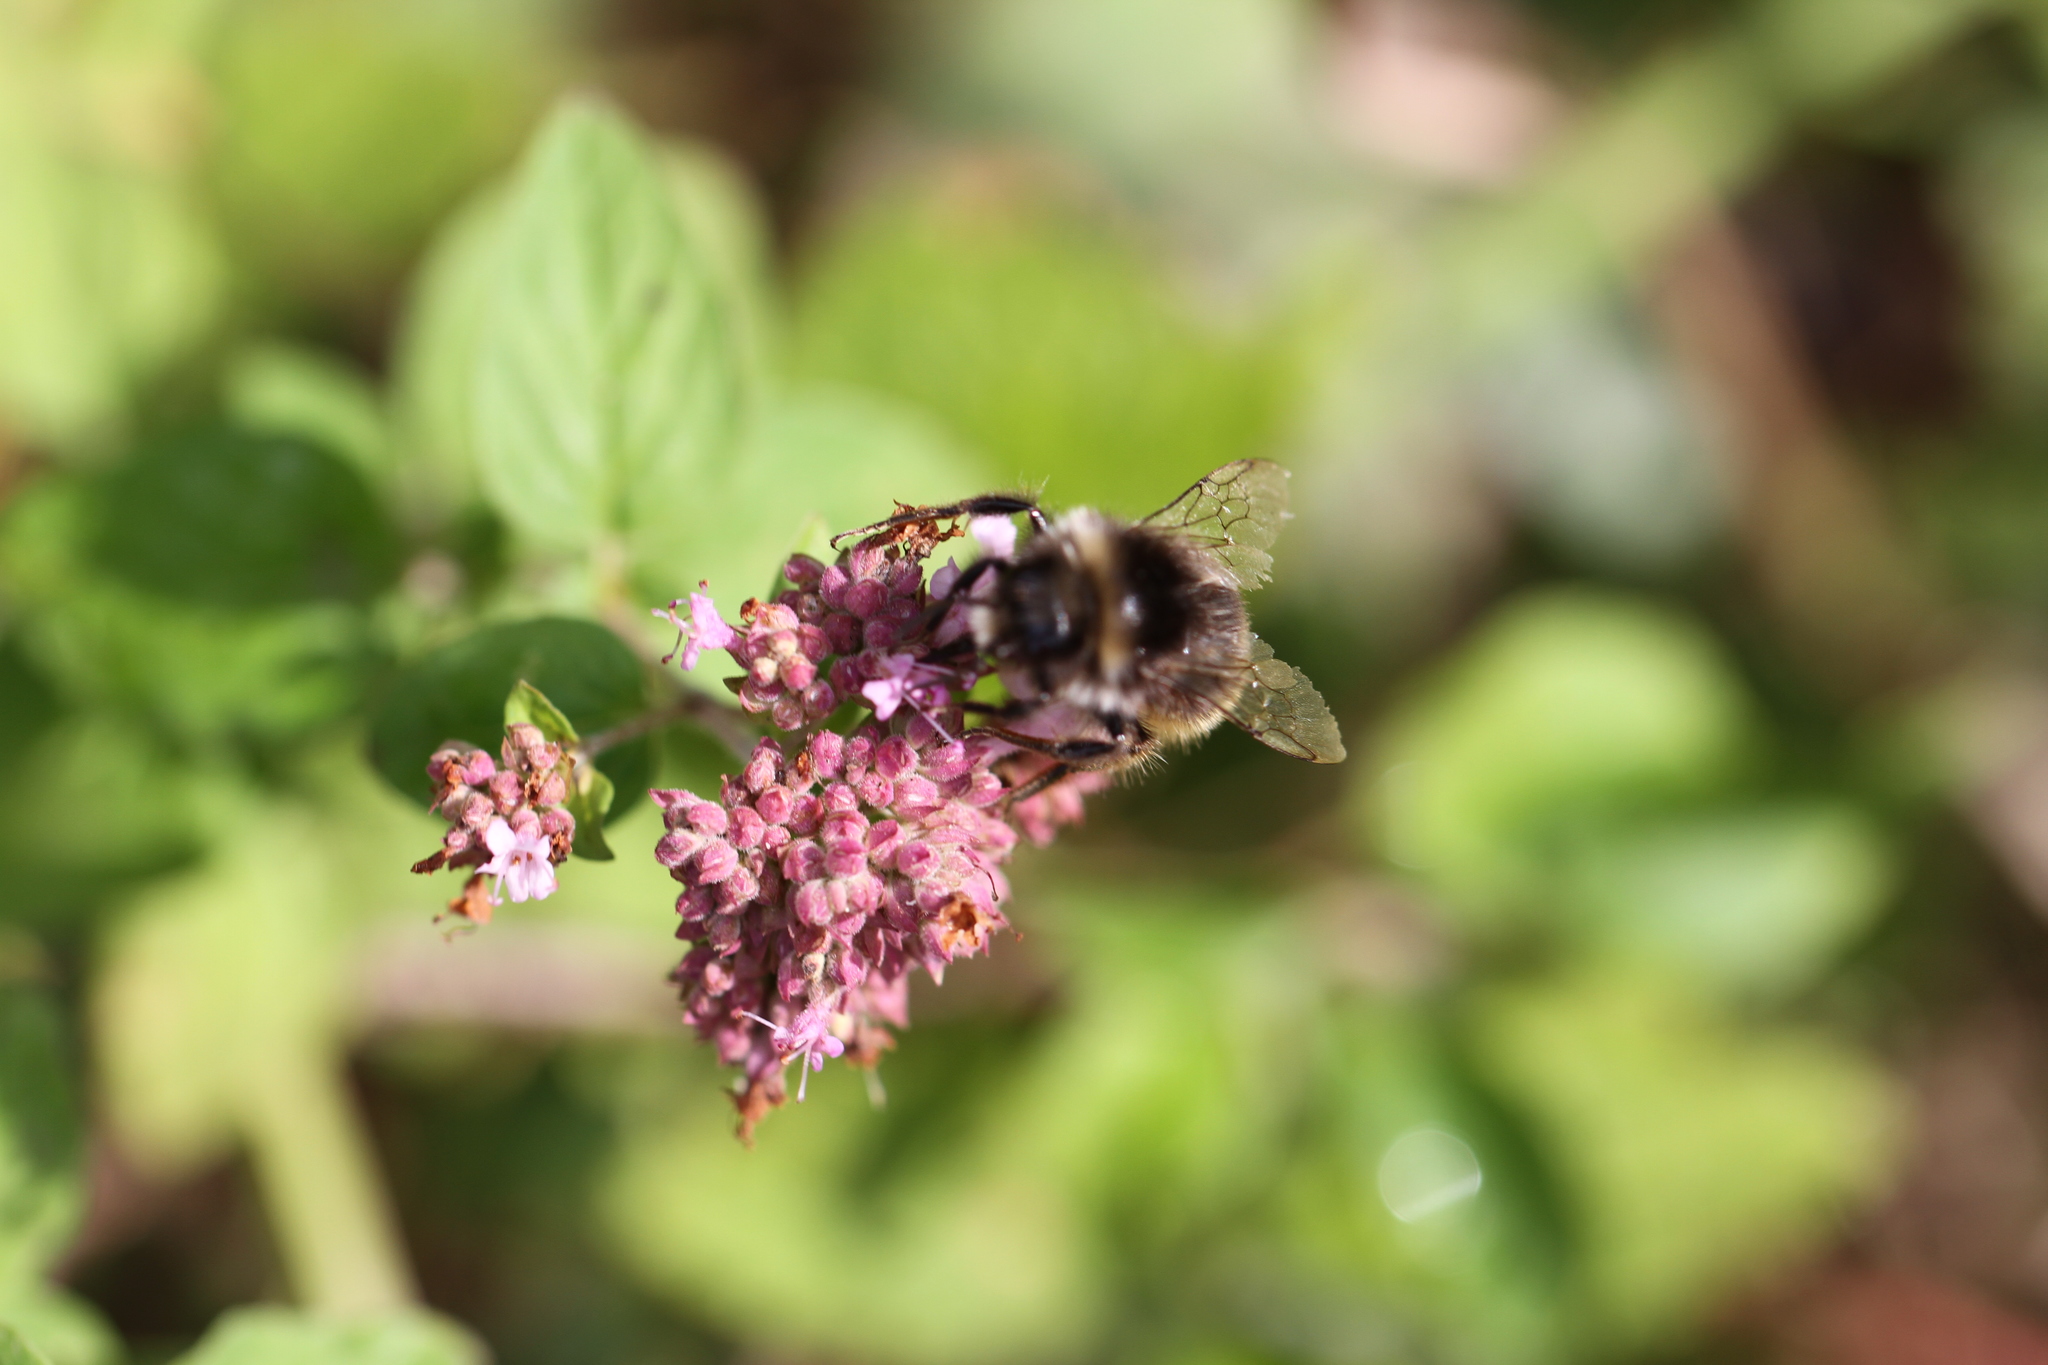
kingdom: Animalia
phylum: Arthropoda
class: Insecta
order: Hymenoptera
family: Apidae
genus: Bombus
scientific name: Bombus lapidarius
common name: Large red-tailed humble-bee
